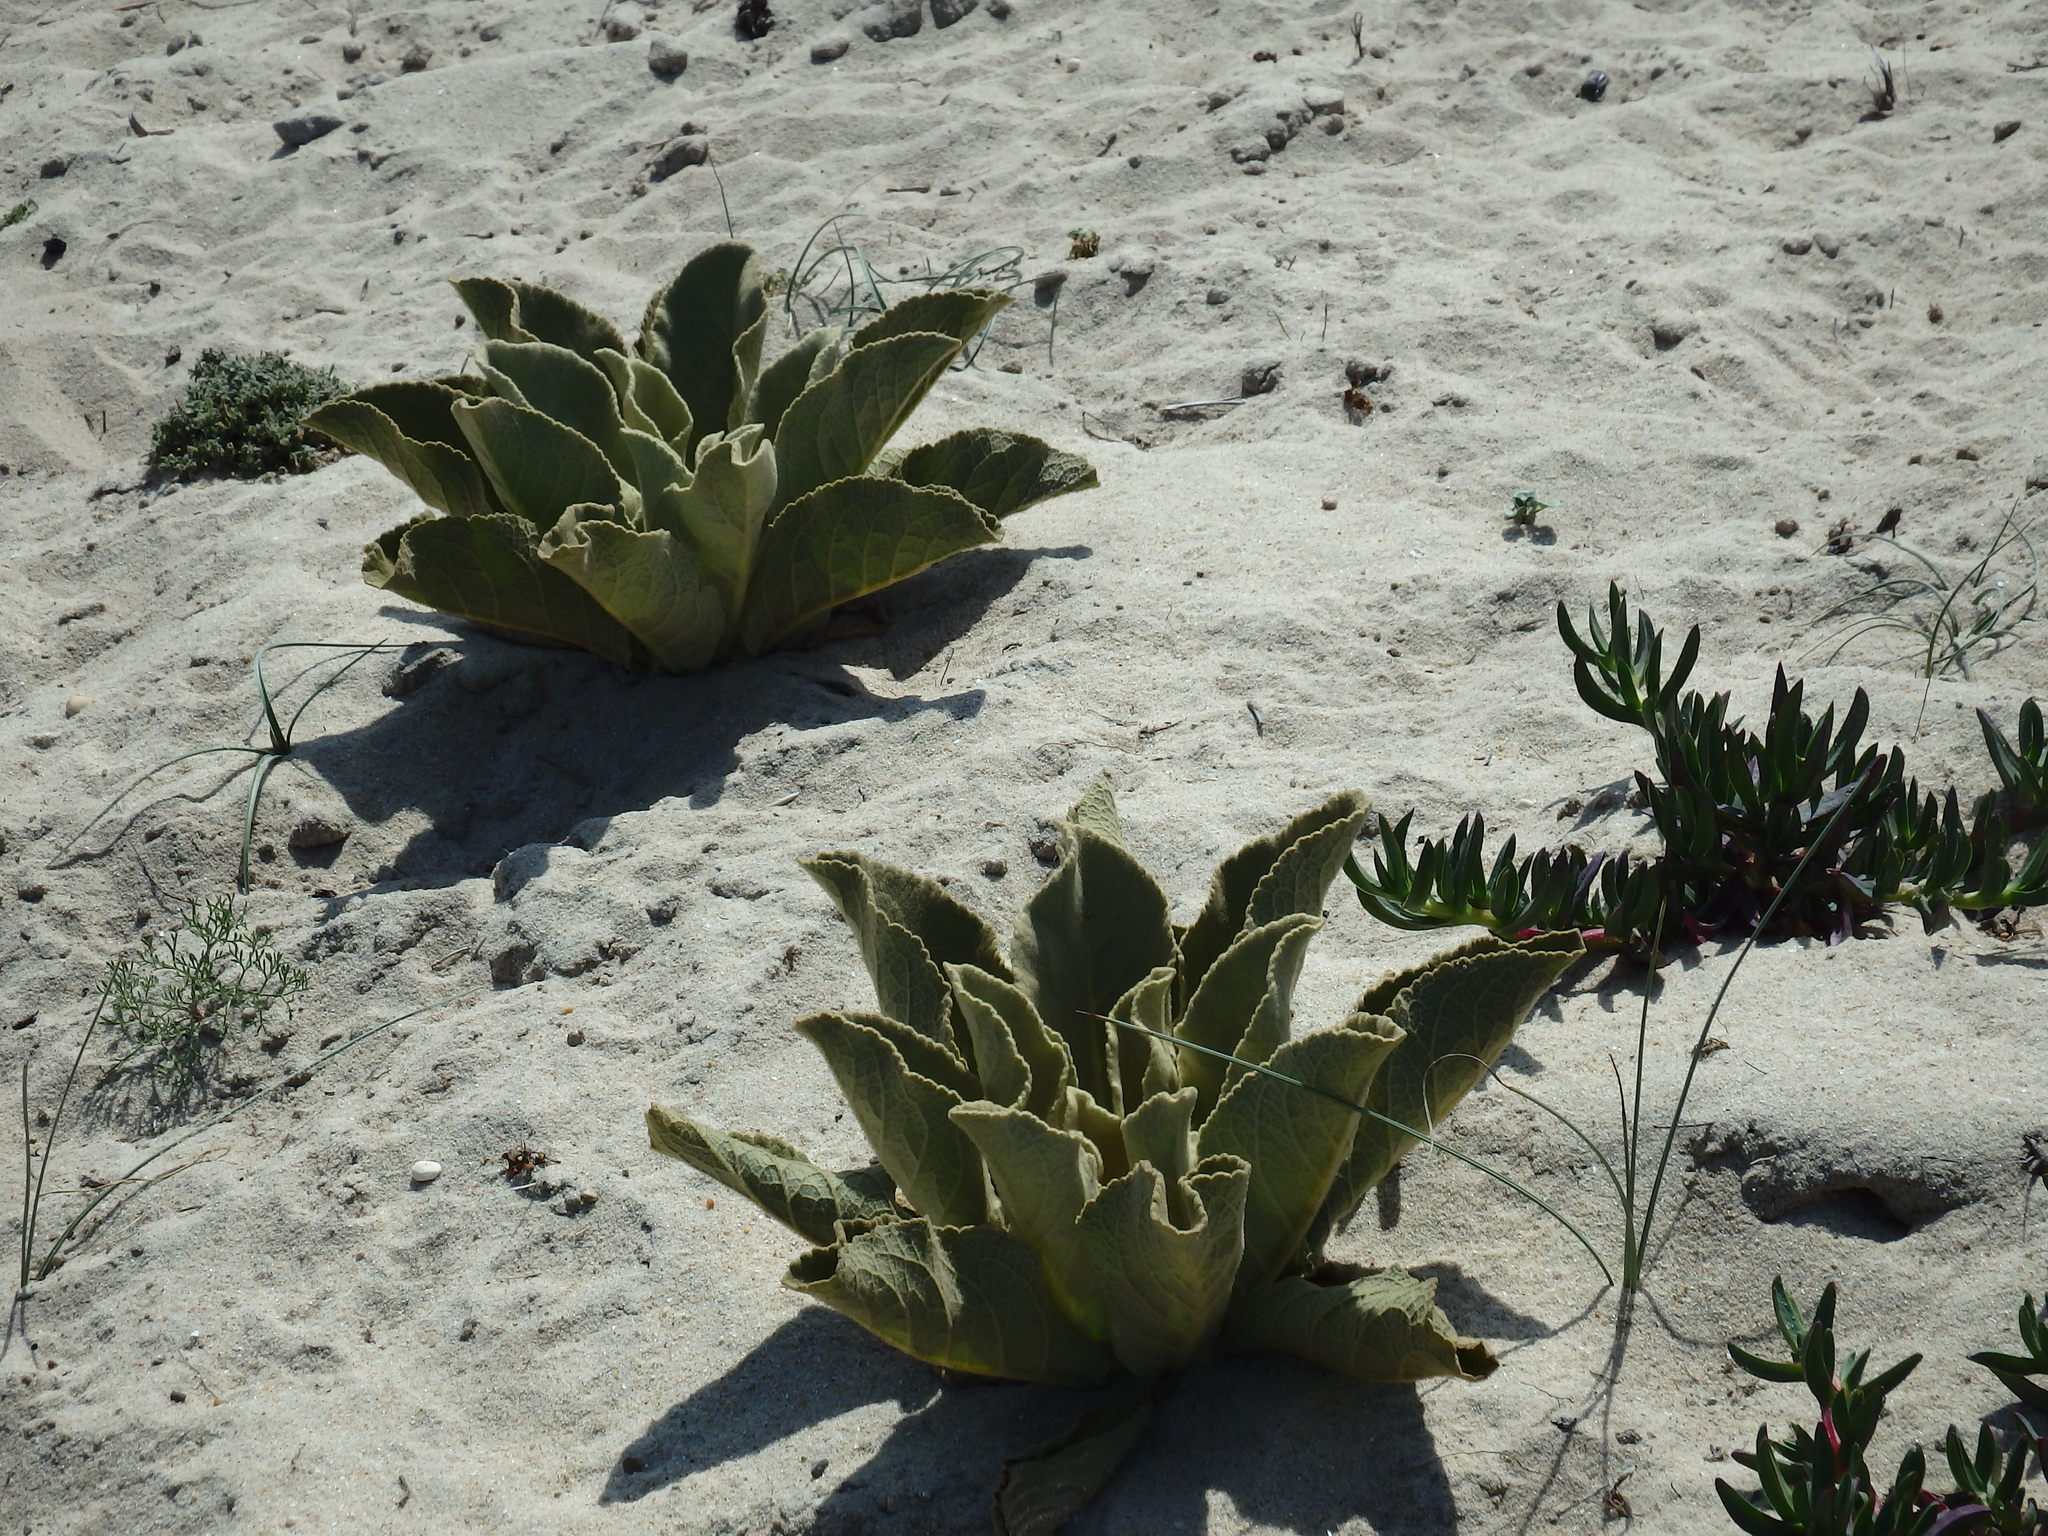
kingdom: Plantae
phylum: Tracheophyta
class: Magnoliopsida
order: Lamiales
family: Scrophulariaceae
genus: Verbascum
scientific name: Verbascum litigiosum
